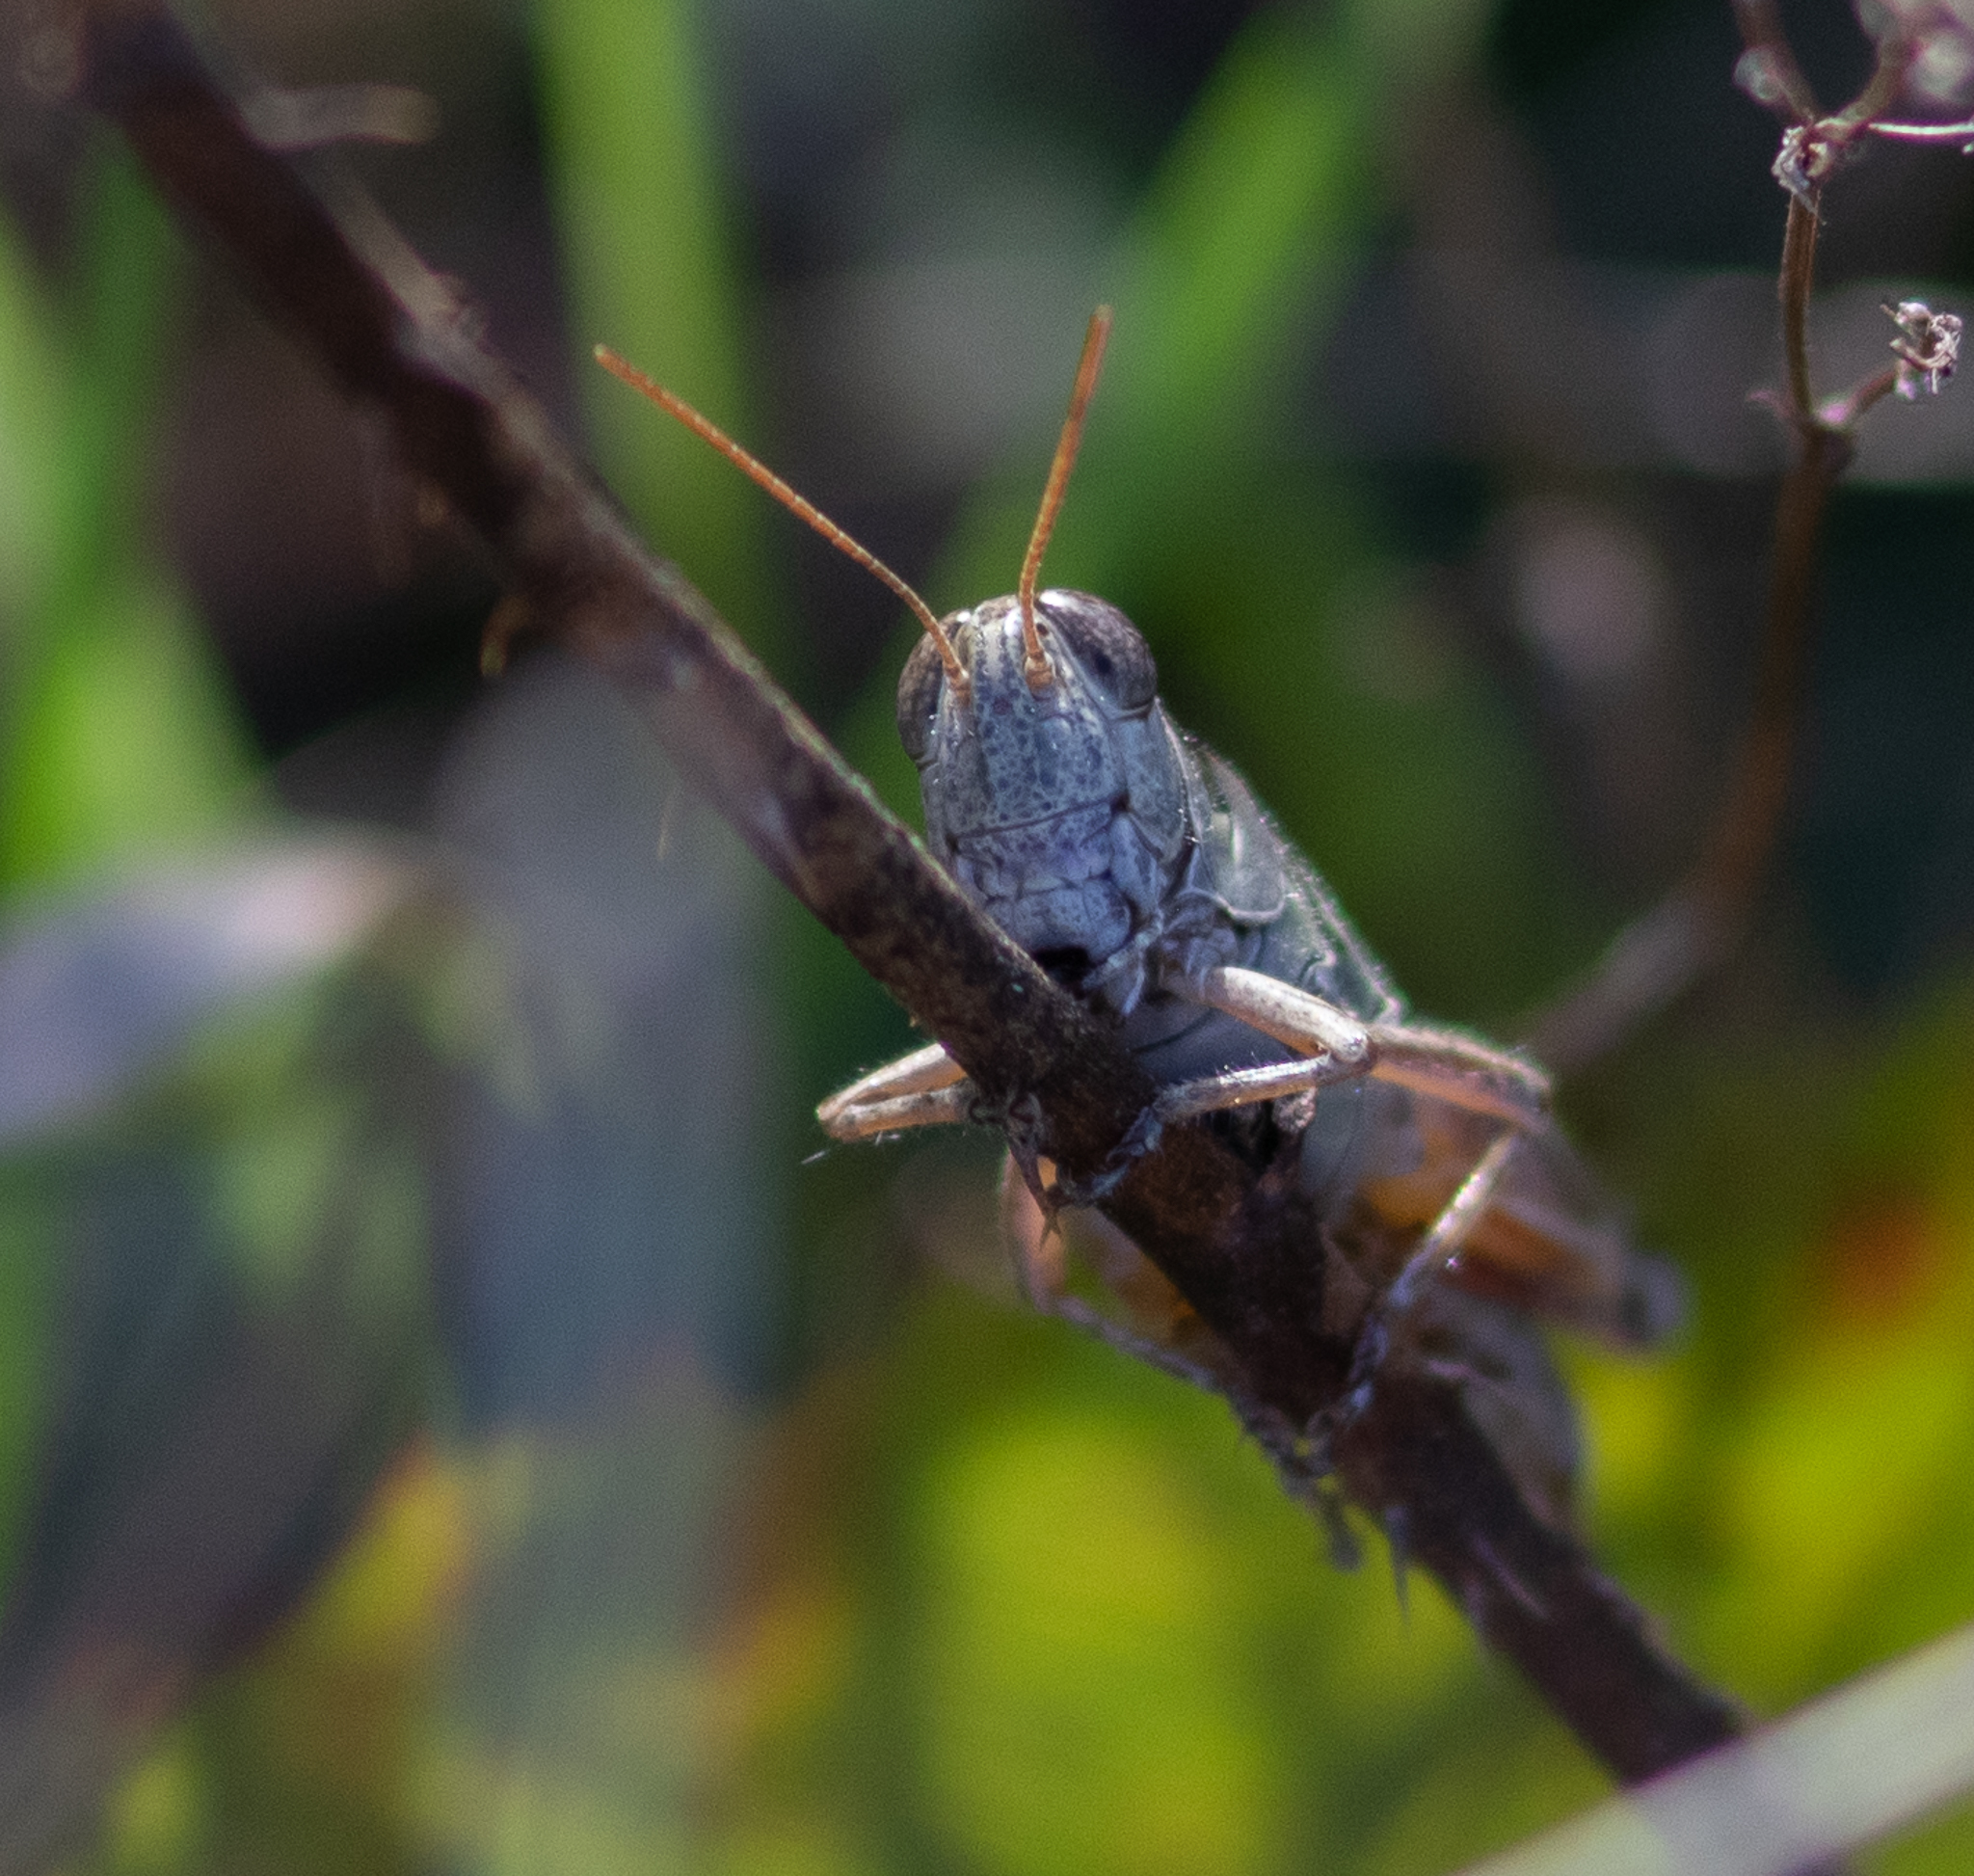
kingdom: Animalia
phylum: Arthropoda
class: Insecta
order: Orthoptera
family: Acrididae
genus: Melanoplus
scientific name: Melanoplus
